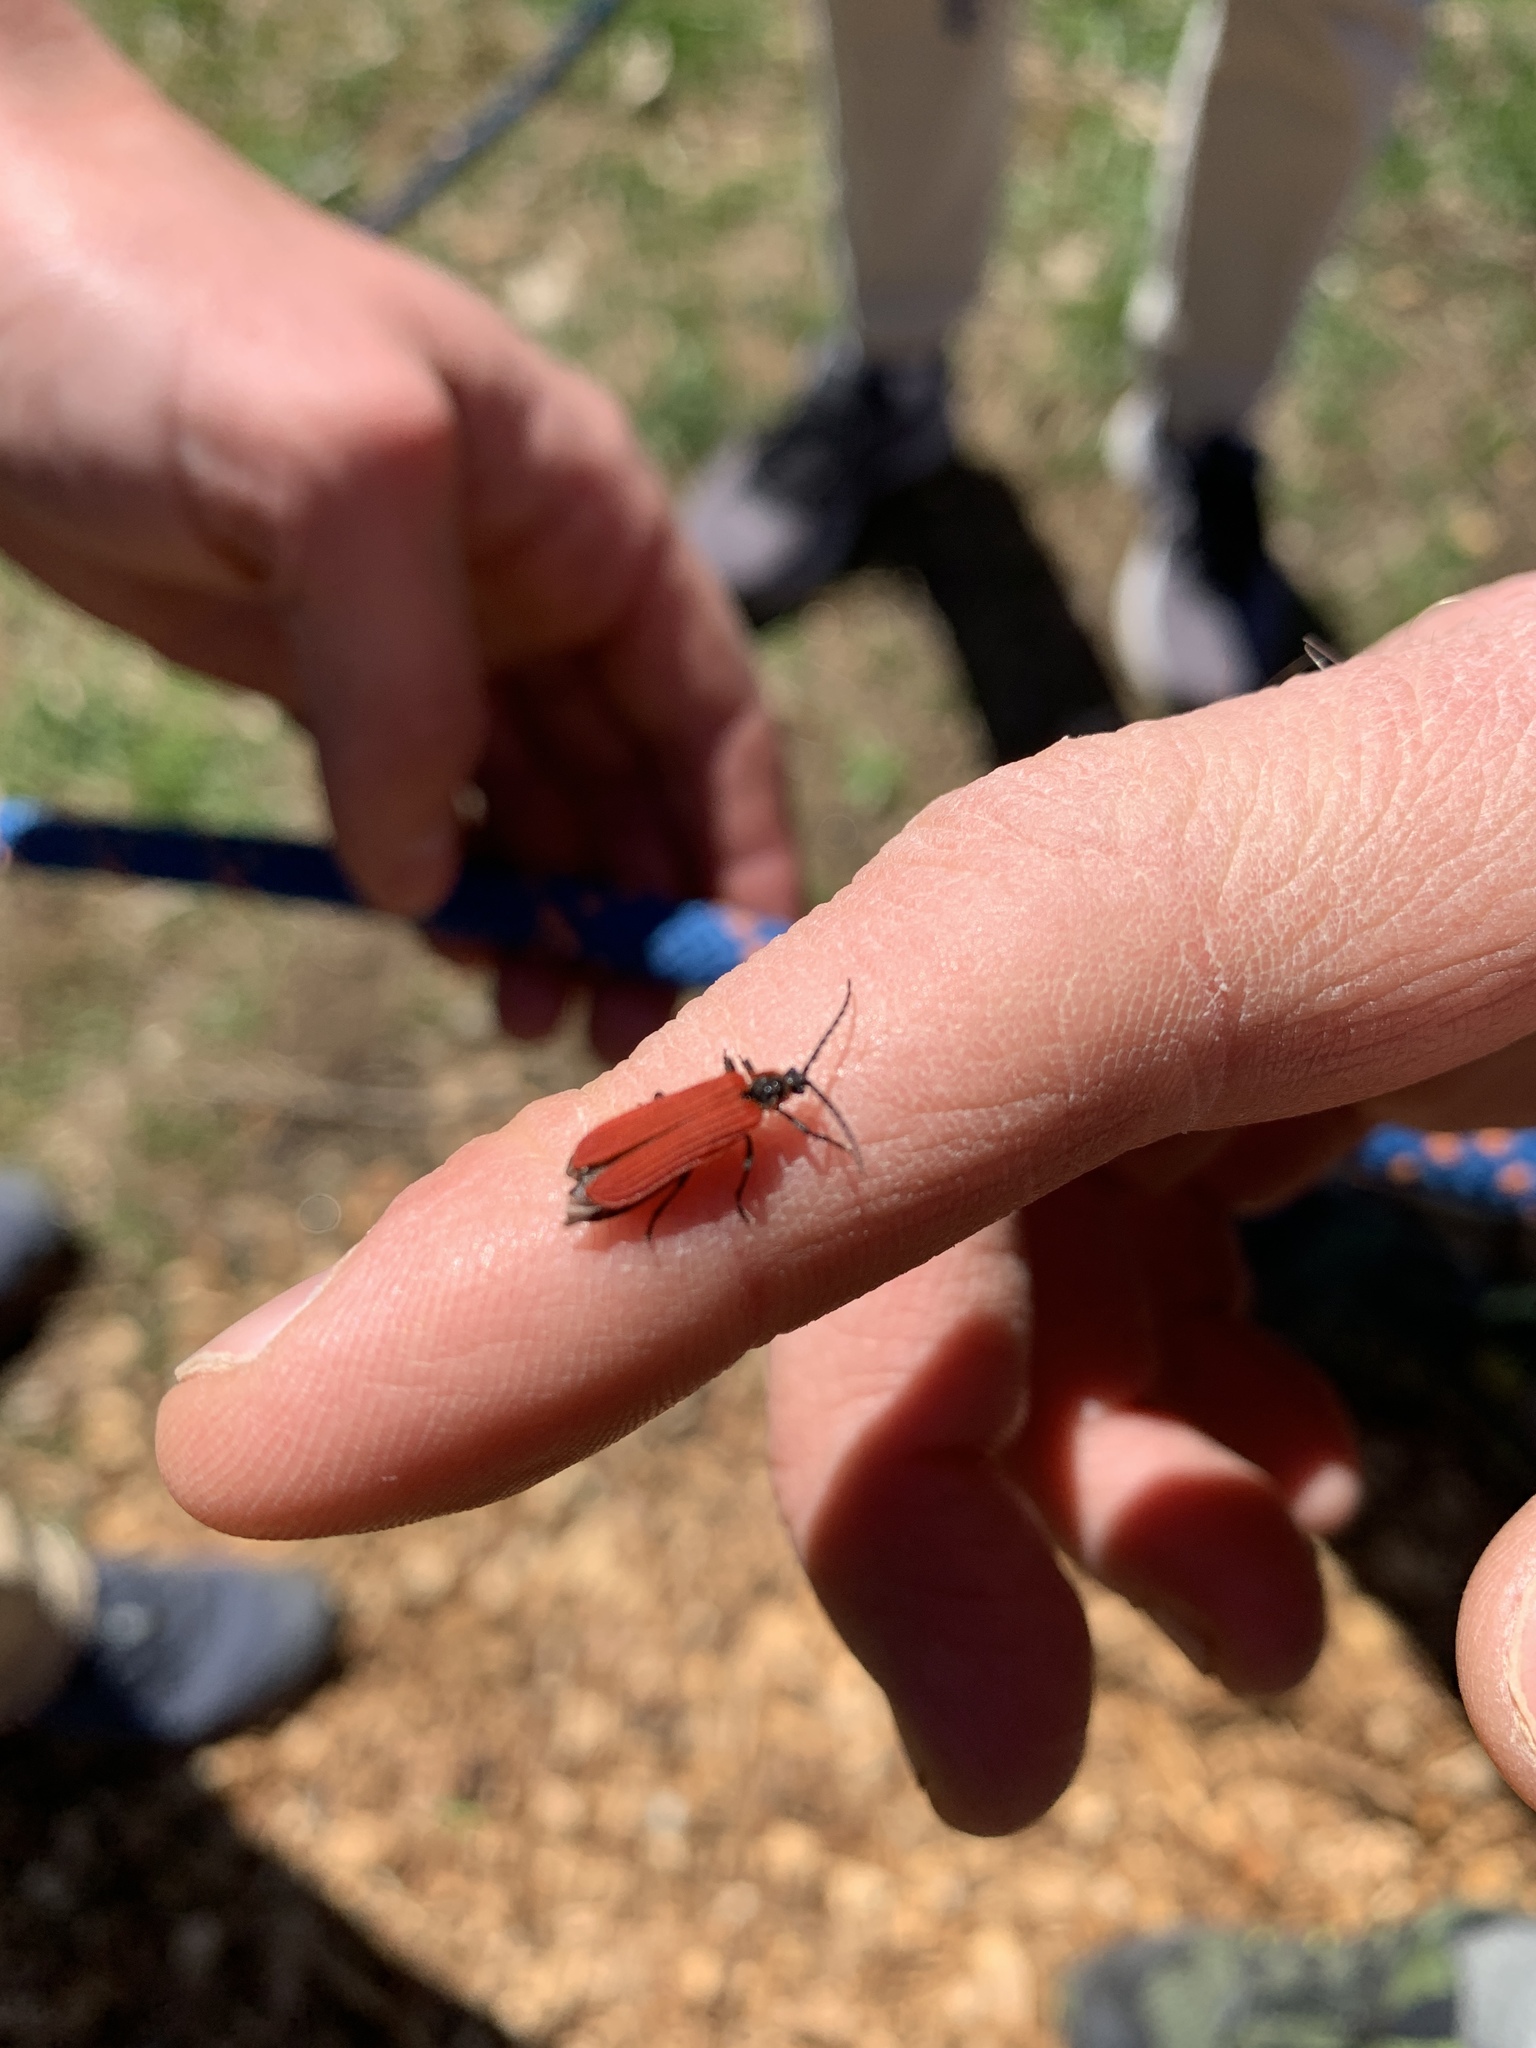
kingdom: Animalia
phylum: Arthropoda
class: Insecta
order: Coleoptera
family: Lycidae
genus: Dictyoptera
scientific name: Dictyoptera aurora
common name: Golden net-winged beetle
